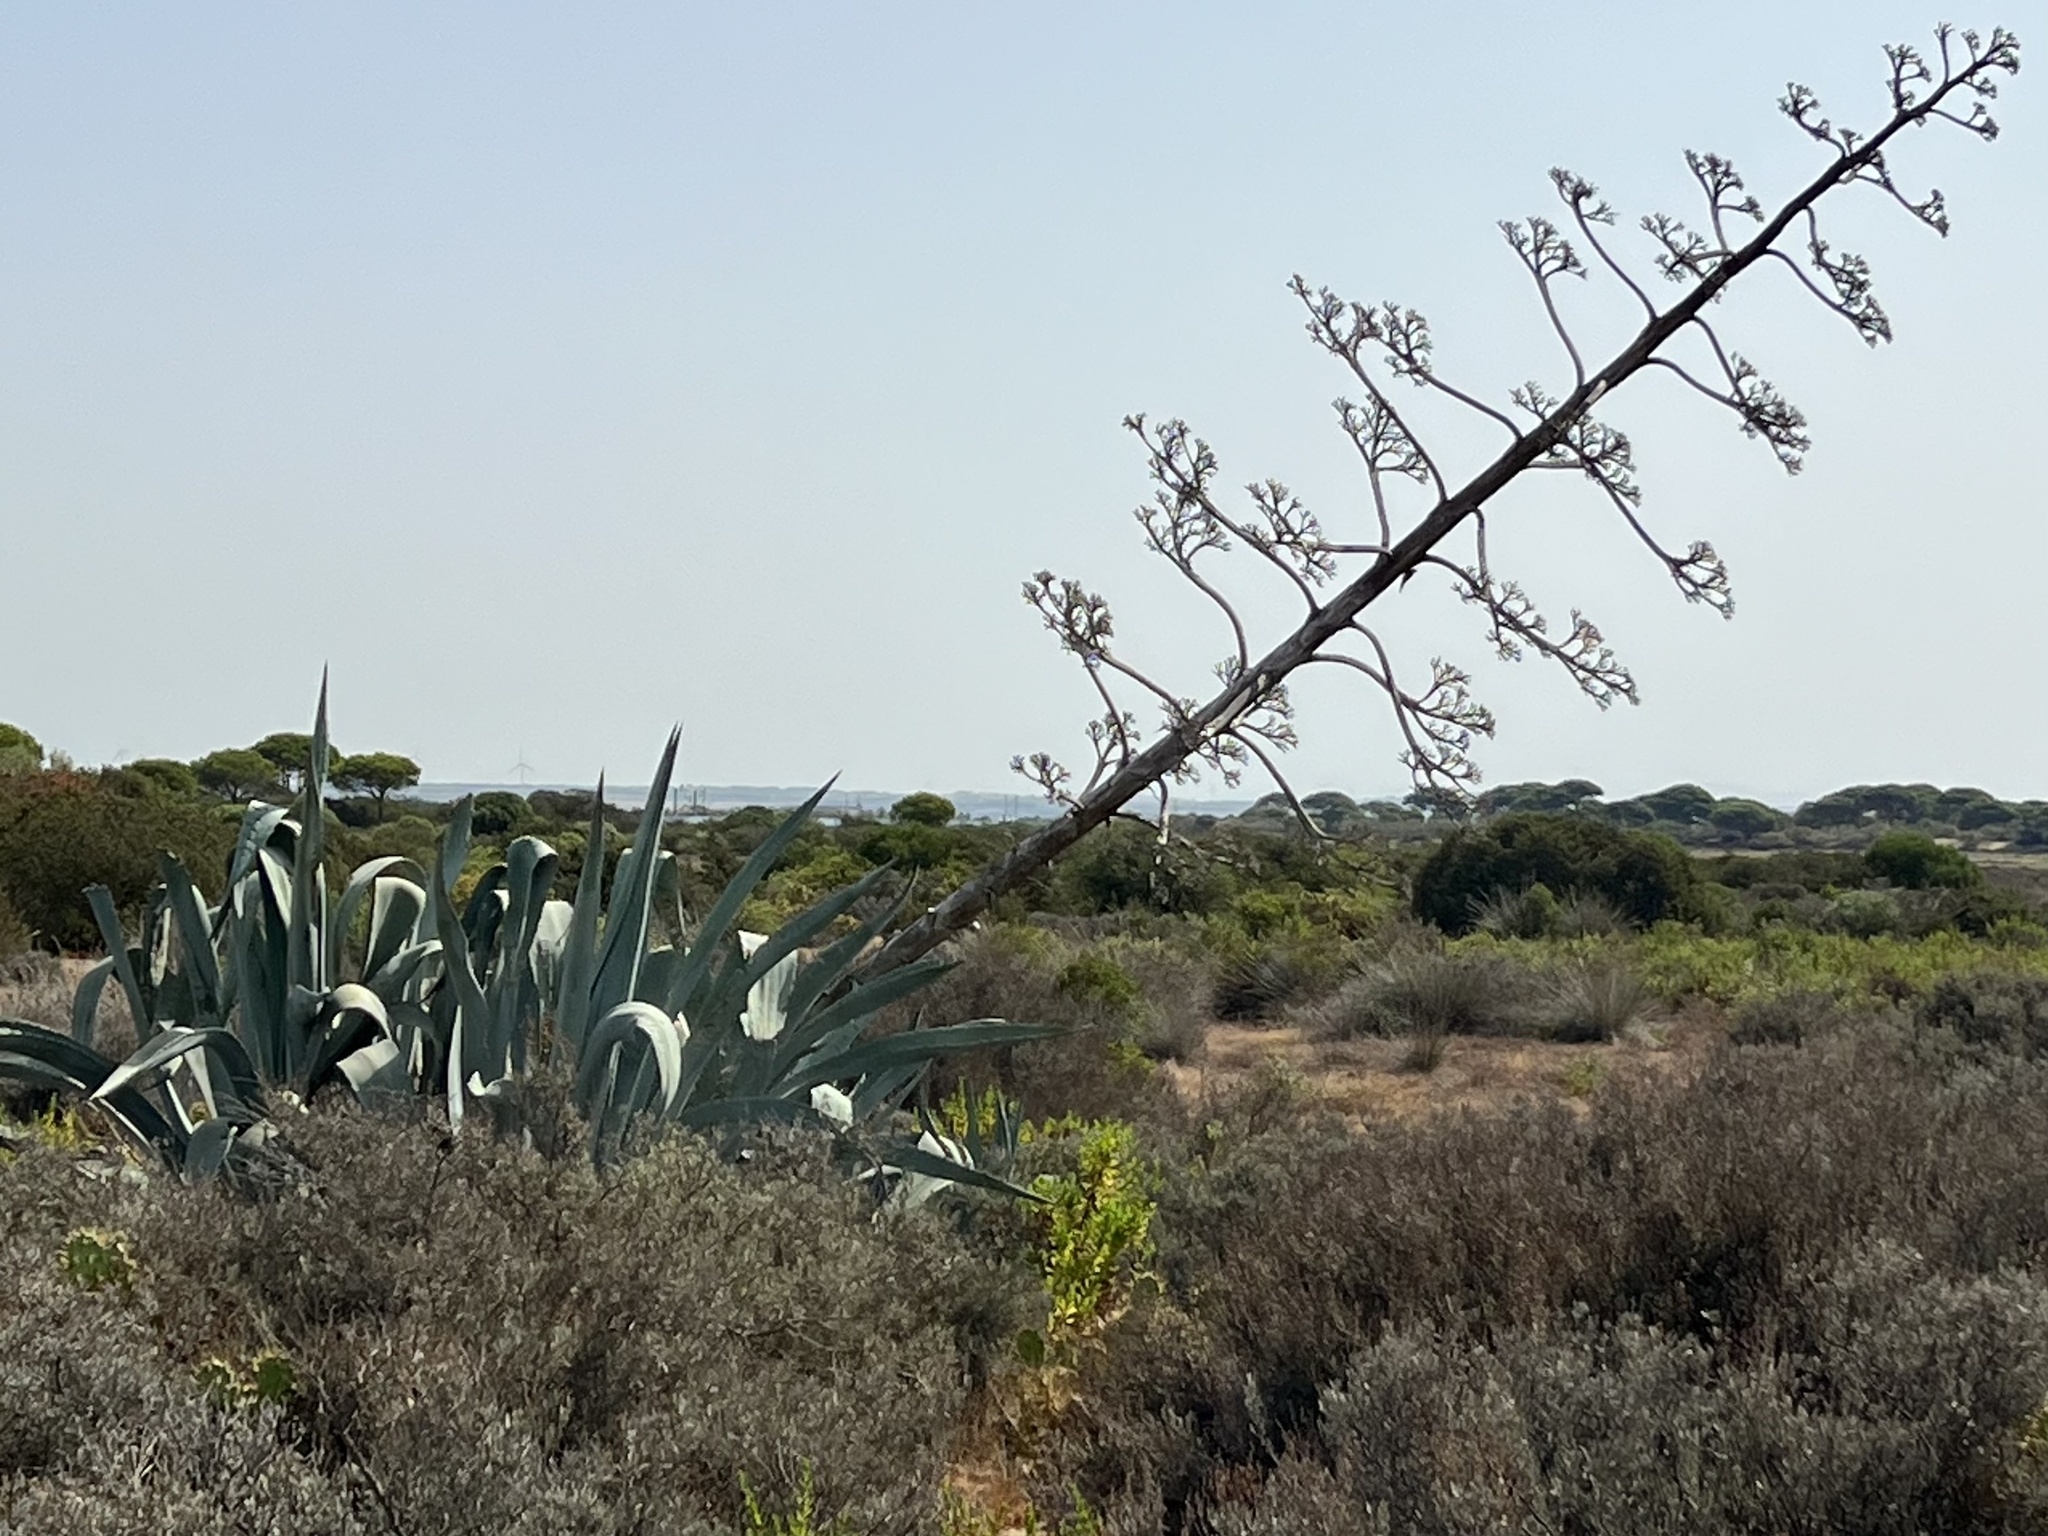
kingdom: Plantae
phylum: Tracheophyta
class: Liliopsida
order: Asparagales
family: Asparagaceae
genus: Agave
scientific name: Agave americana
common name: Centuryplant
